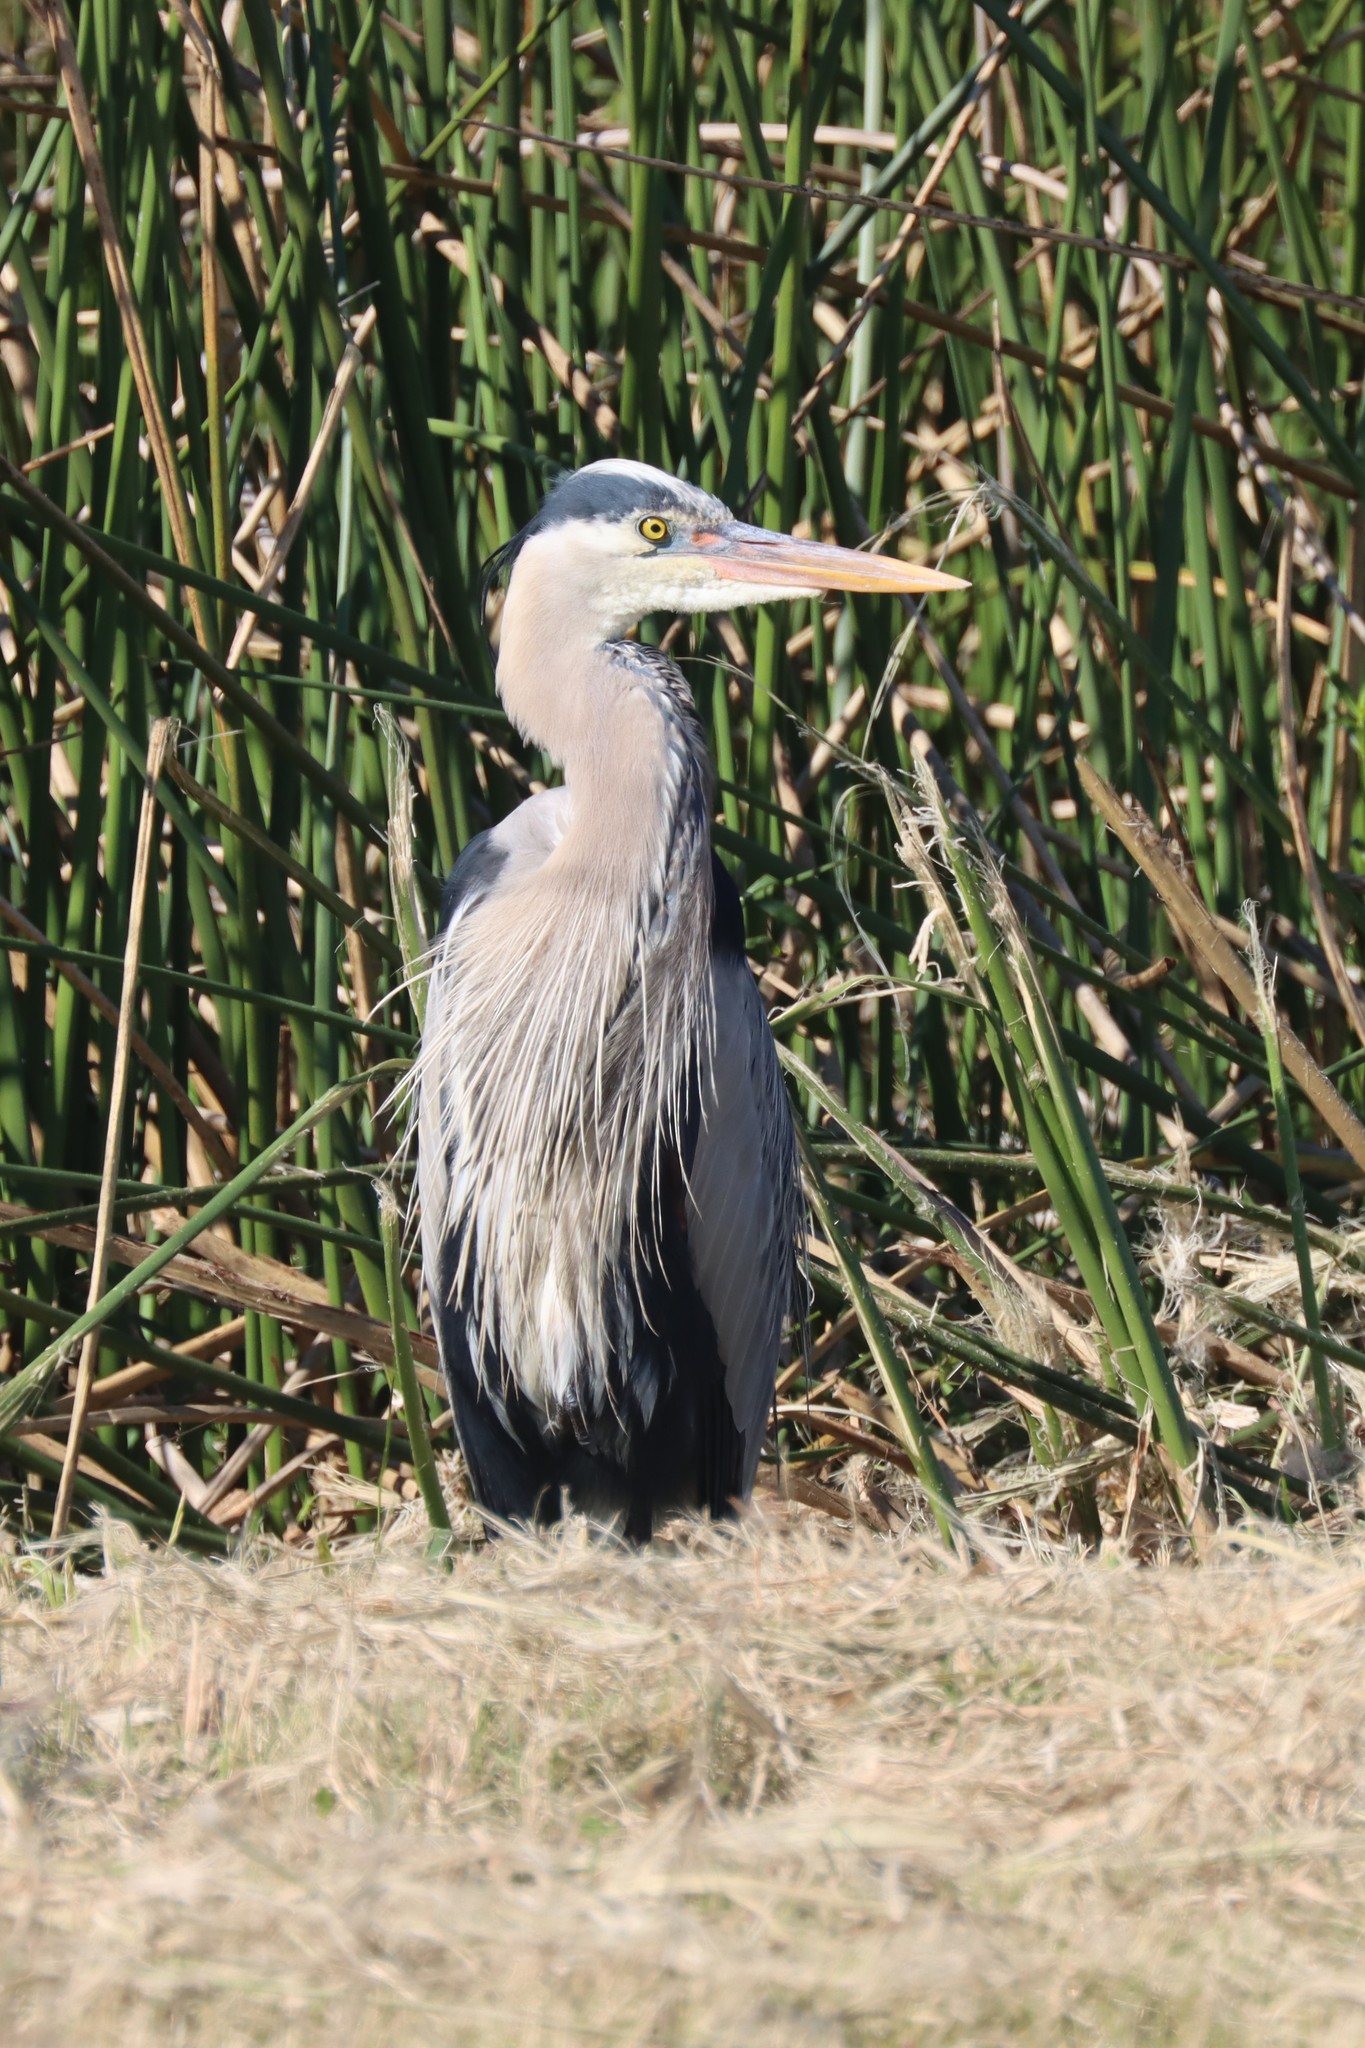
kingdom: Animalia
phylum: Chordata
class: Aves
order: Pelecaniformes
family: Ardeidae
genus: Ardea
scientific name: Ardea herodias
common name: Great blue heron
